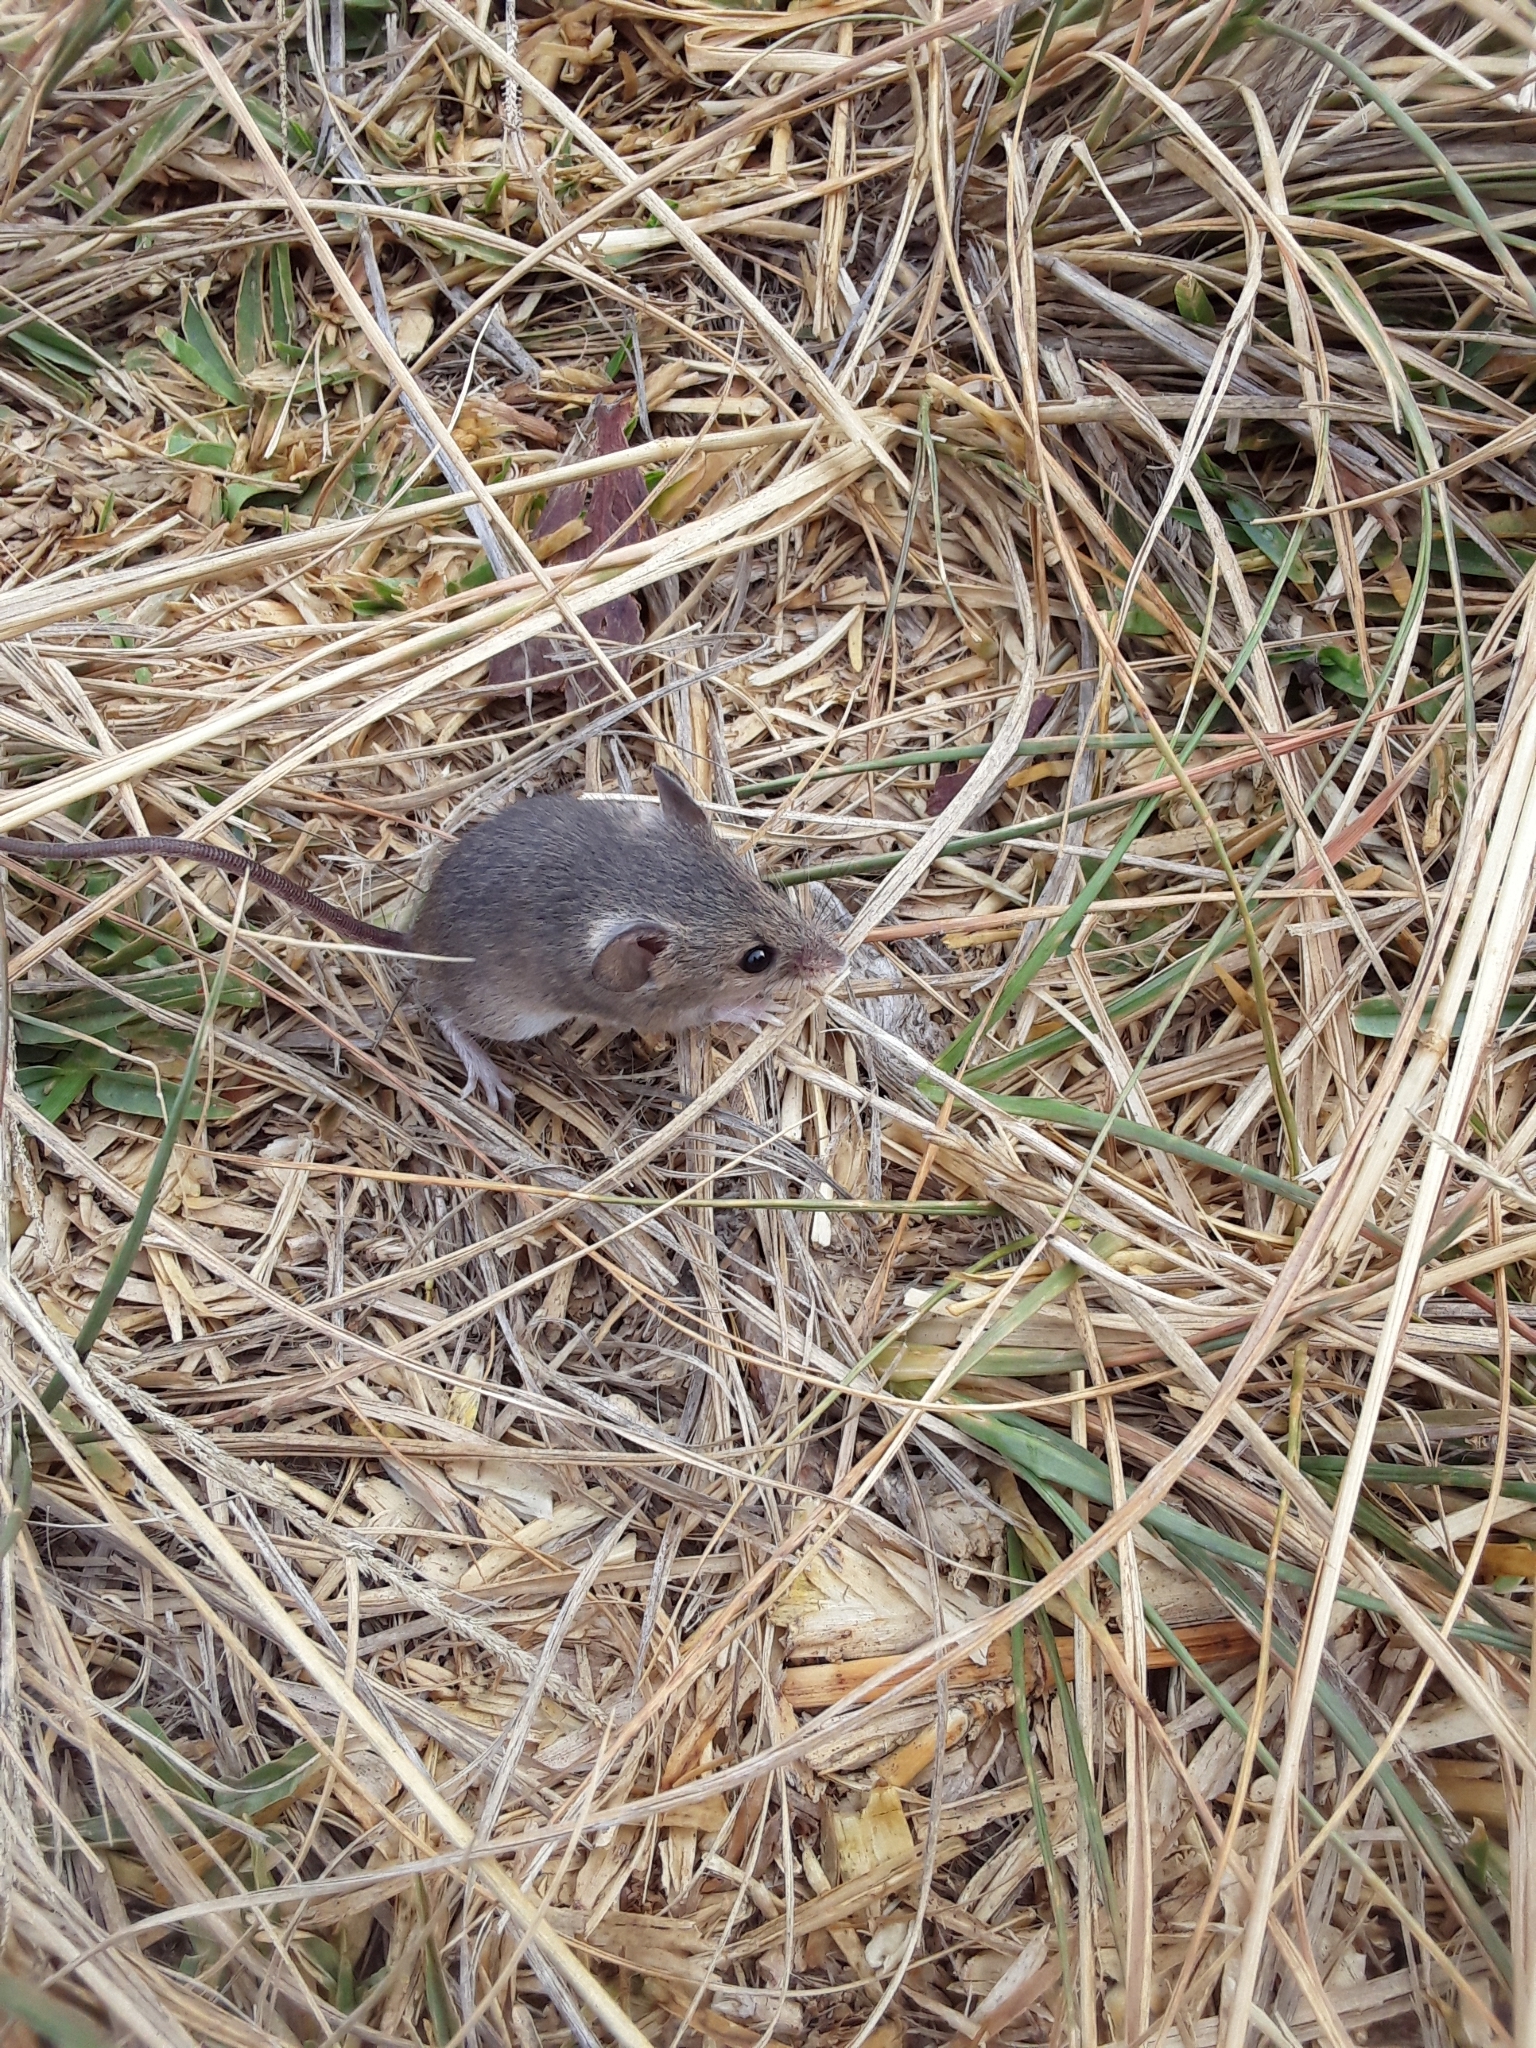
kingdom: Animalia
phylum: Chordata
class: Mammalia
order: Rodentia
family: Muridae
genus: Mus
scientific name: Mus musculus
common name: House mouse
